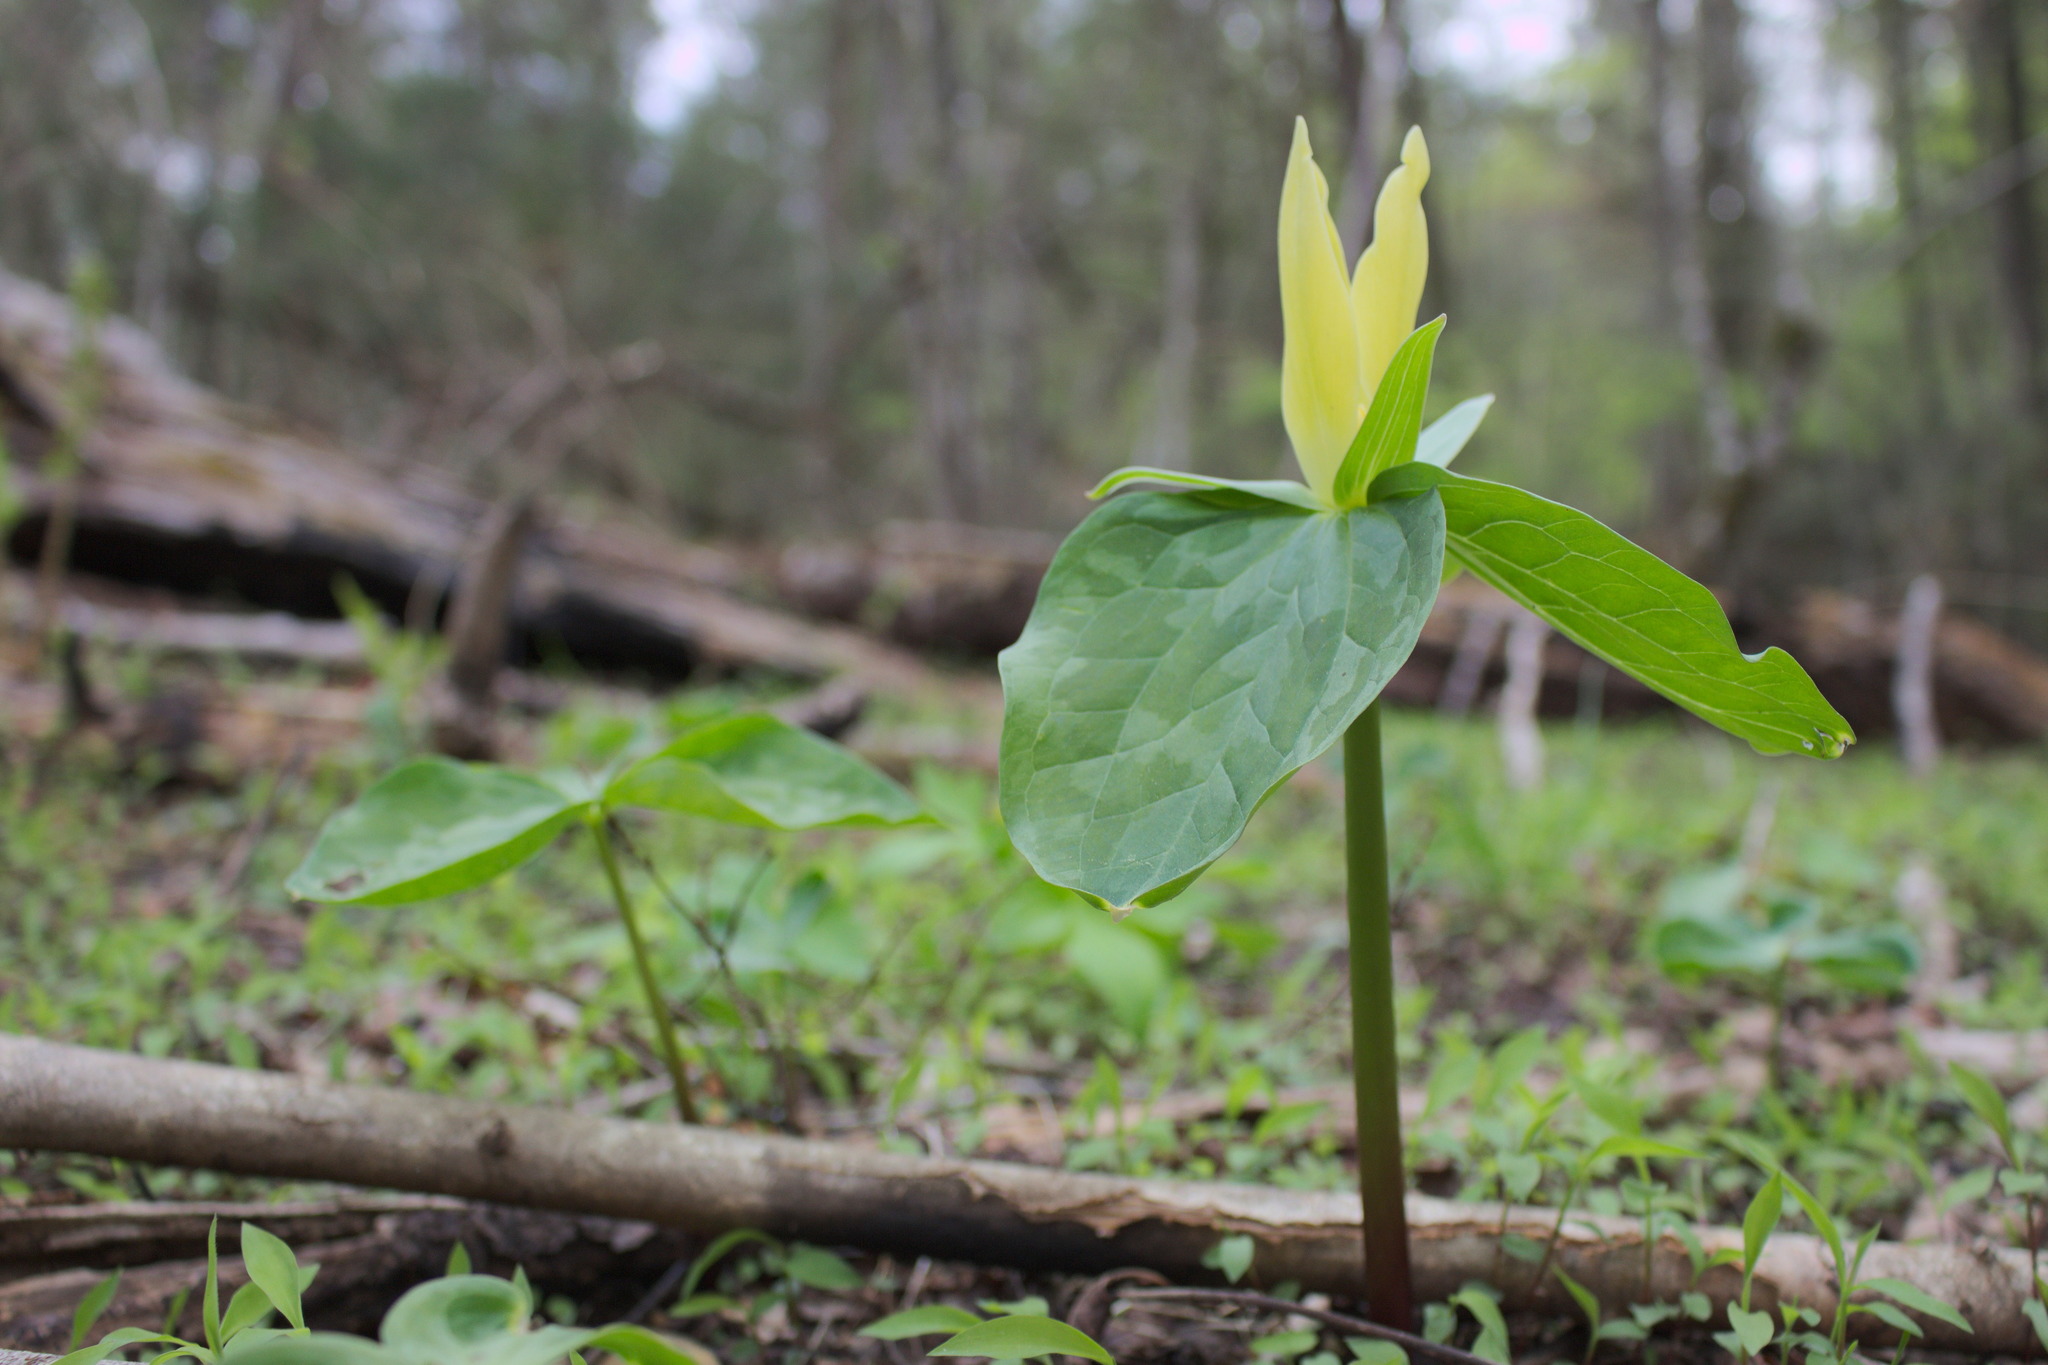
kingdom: Plantae
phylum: Tracheophyta
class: Liliopsida
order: Liliales
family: Melanthiaceae
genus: Trillium
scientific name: Trillium luteum
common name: Wax trillium
